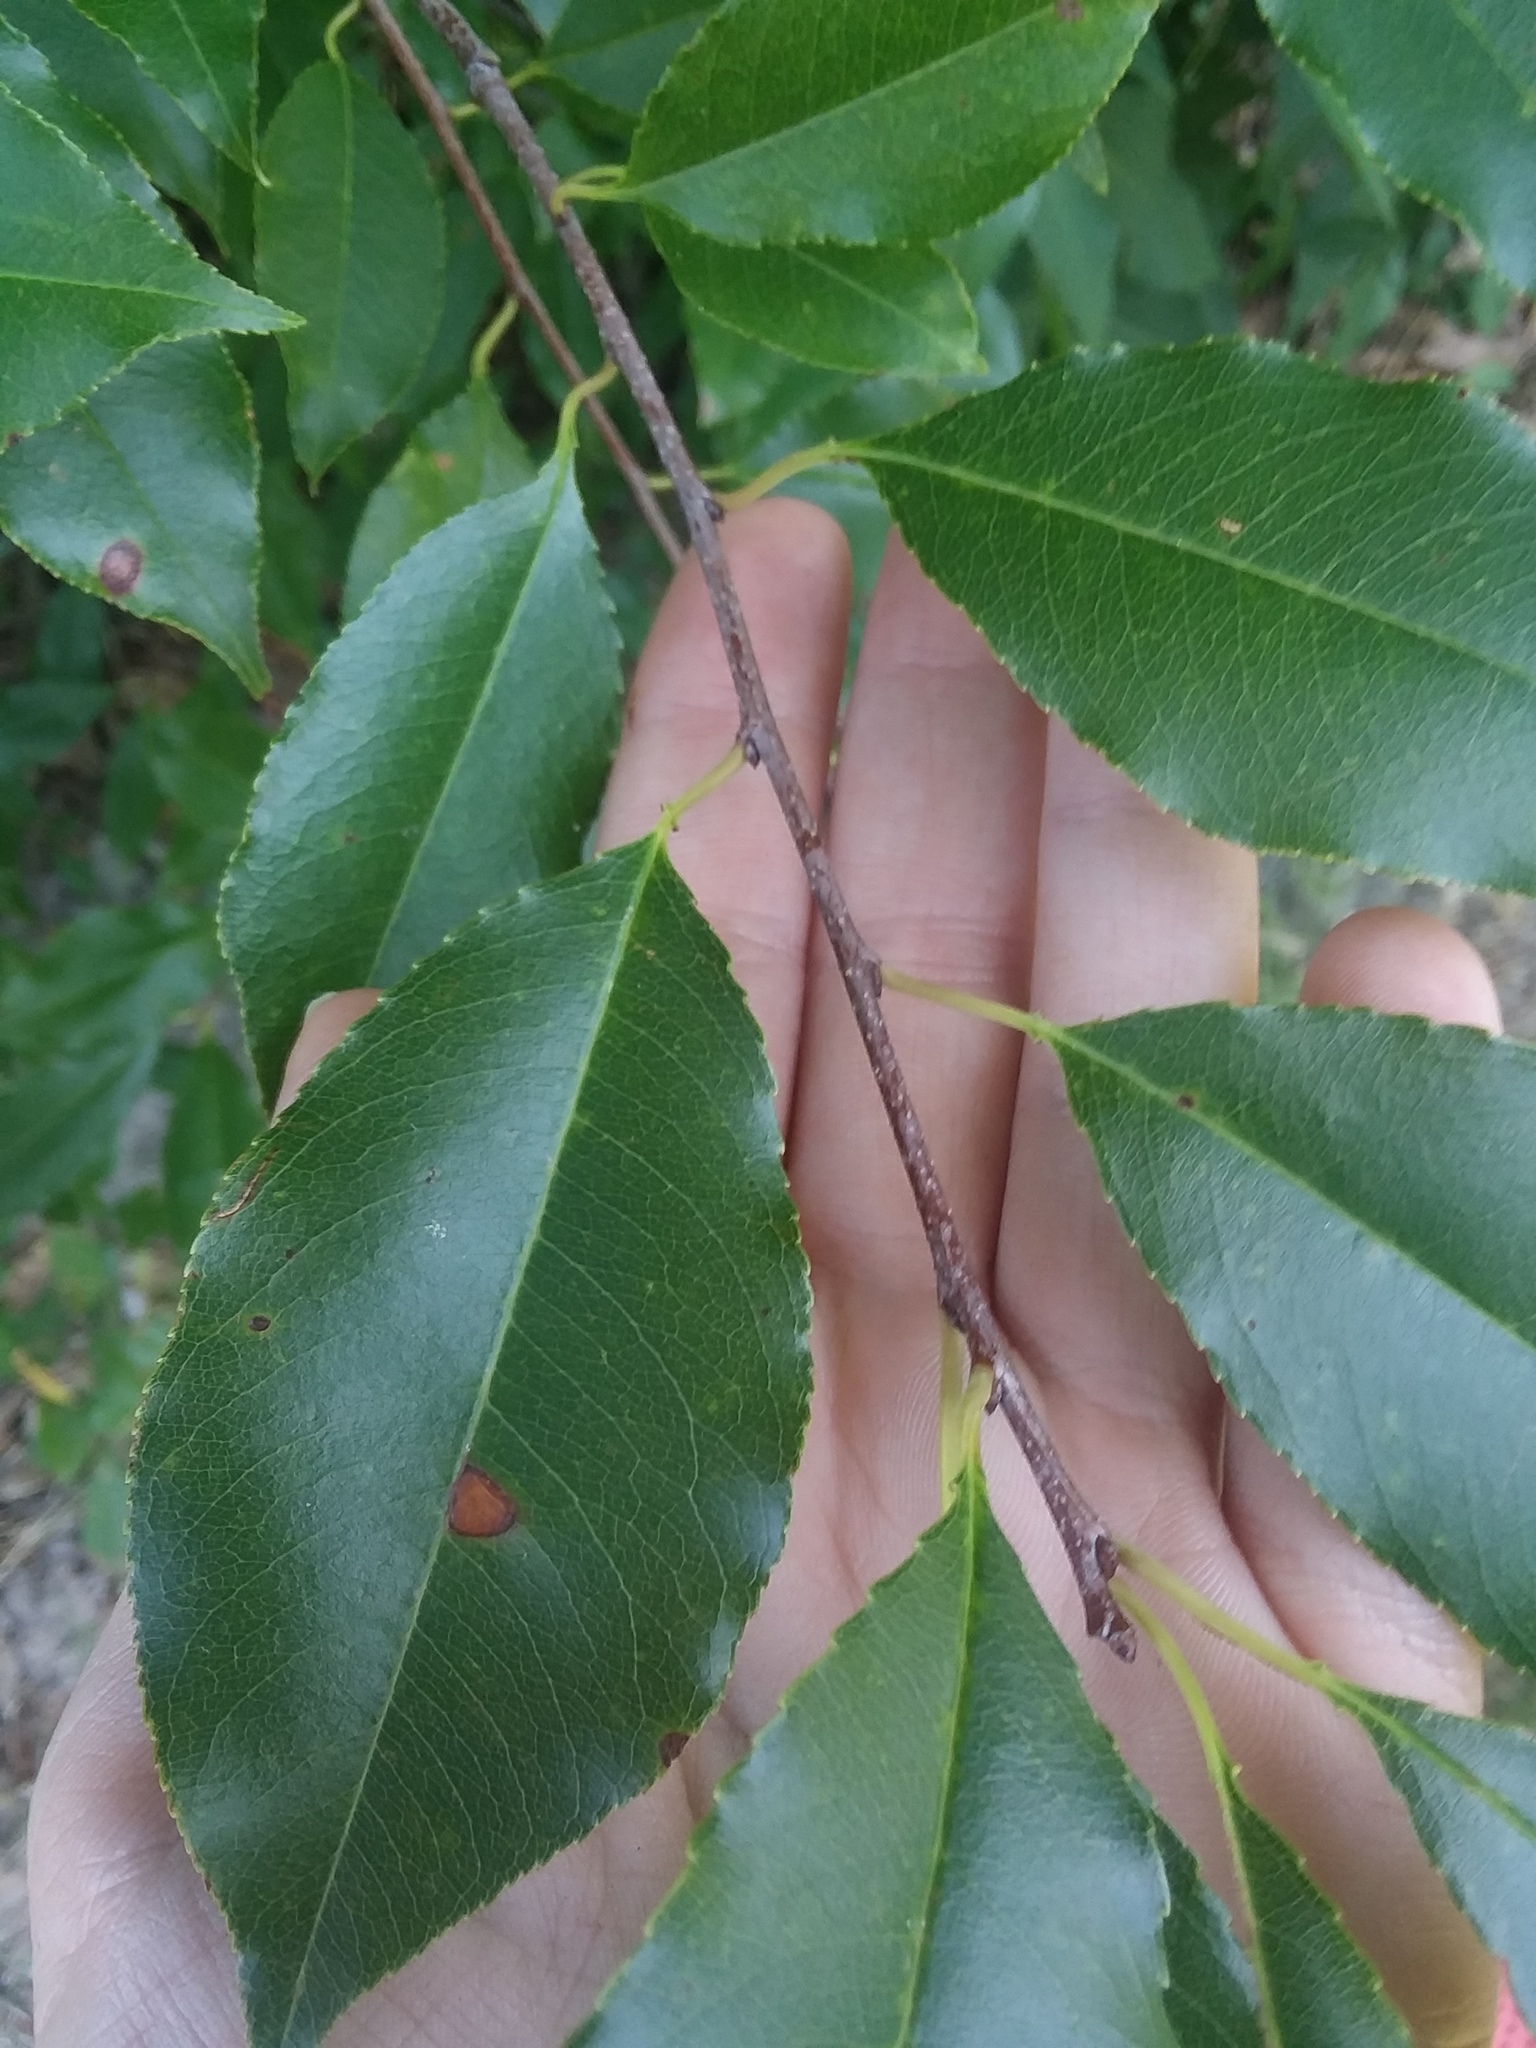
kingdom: Plantae
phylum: Tracheophyta
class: Magnoliopsida
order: Rosales
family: Rosaceae
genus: Prunus
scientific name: Prunus serotina
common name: Black cherry
